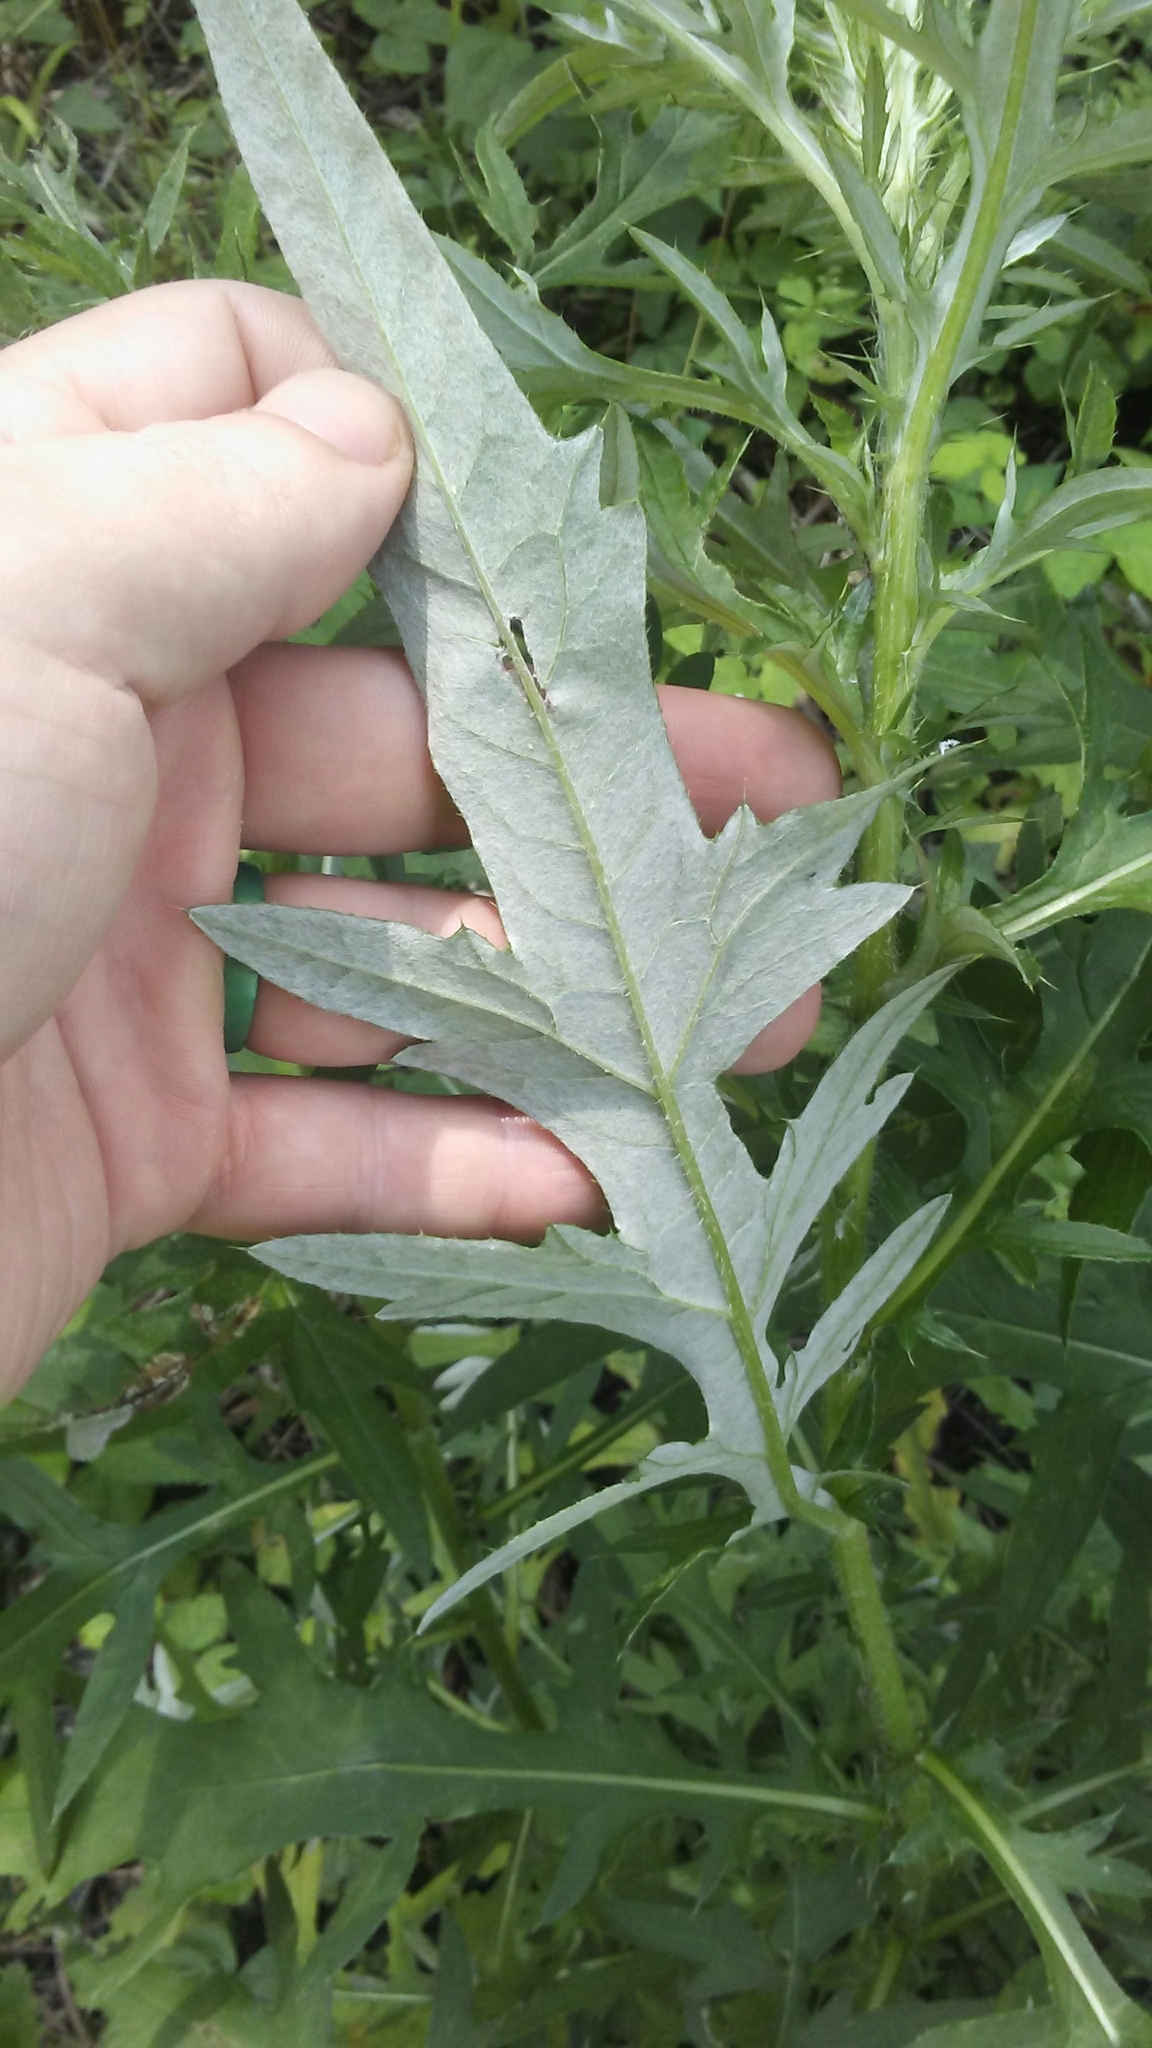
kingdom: Plantae
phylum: Tracheophyta
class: Magnoliopsida
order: Asterales
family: Asteraceae
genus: Cirsium
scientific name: Cirsium discolor
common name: Field thistle
